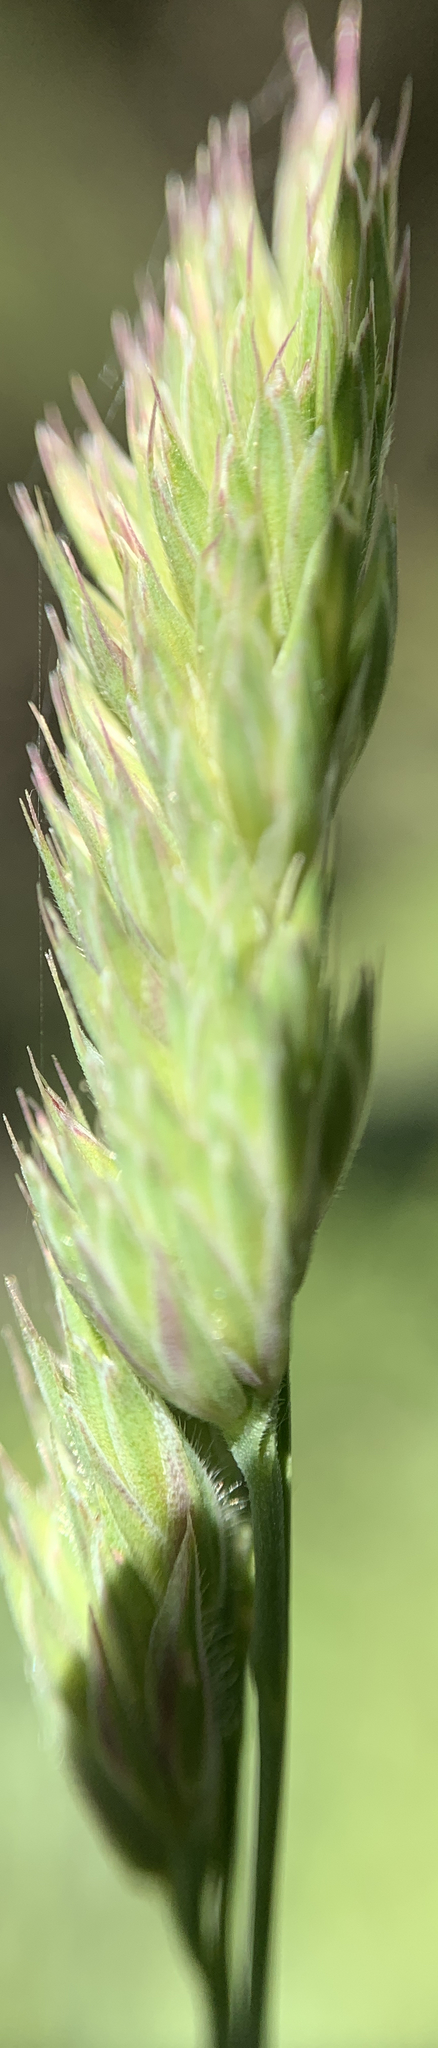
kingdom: Plantae
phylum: Tracheophyta
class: Liliopsida
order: Poales
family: Poaceae
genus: Dactylis
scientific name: Dactylis glomerata
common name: Orchardgrass
